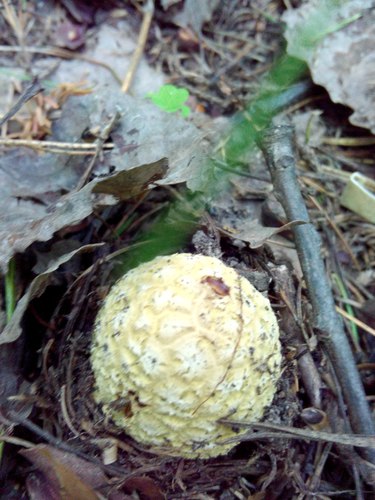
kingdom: Fungi
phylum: Basidiomycota
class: Agaricomycetes
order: Agaricales
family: Amanitaceae
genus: Amanita
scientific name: Amanita
